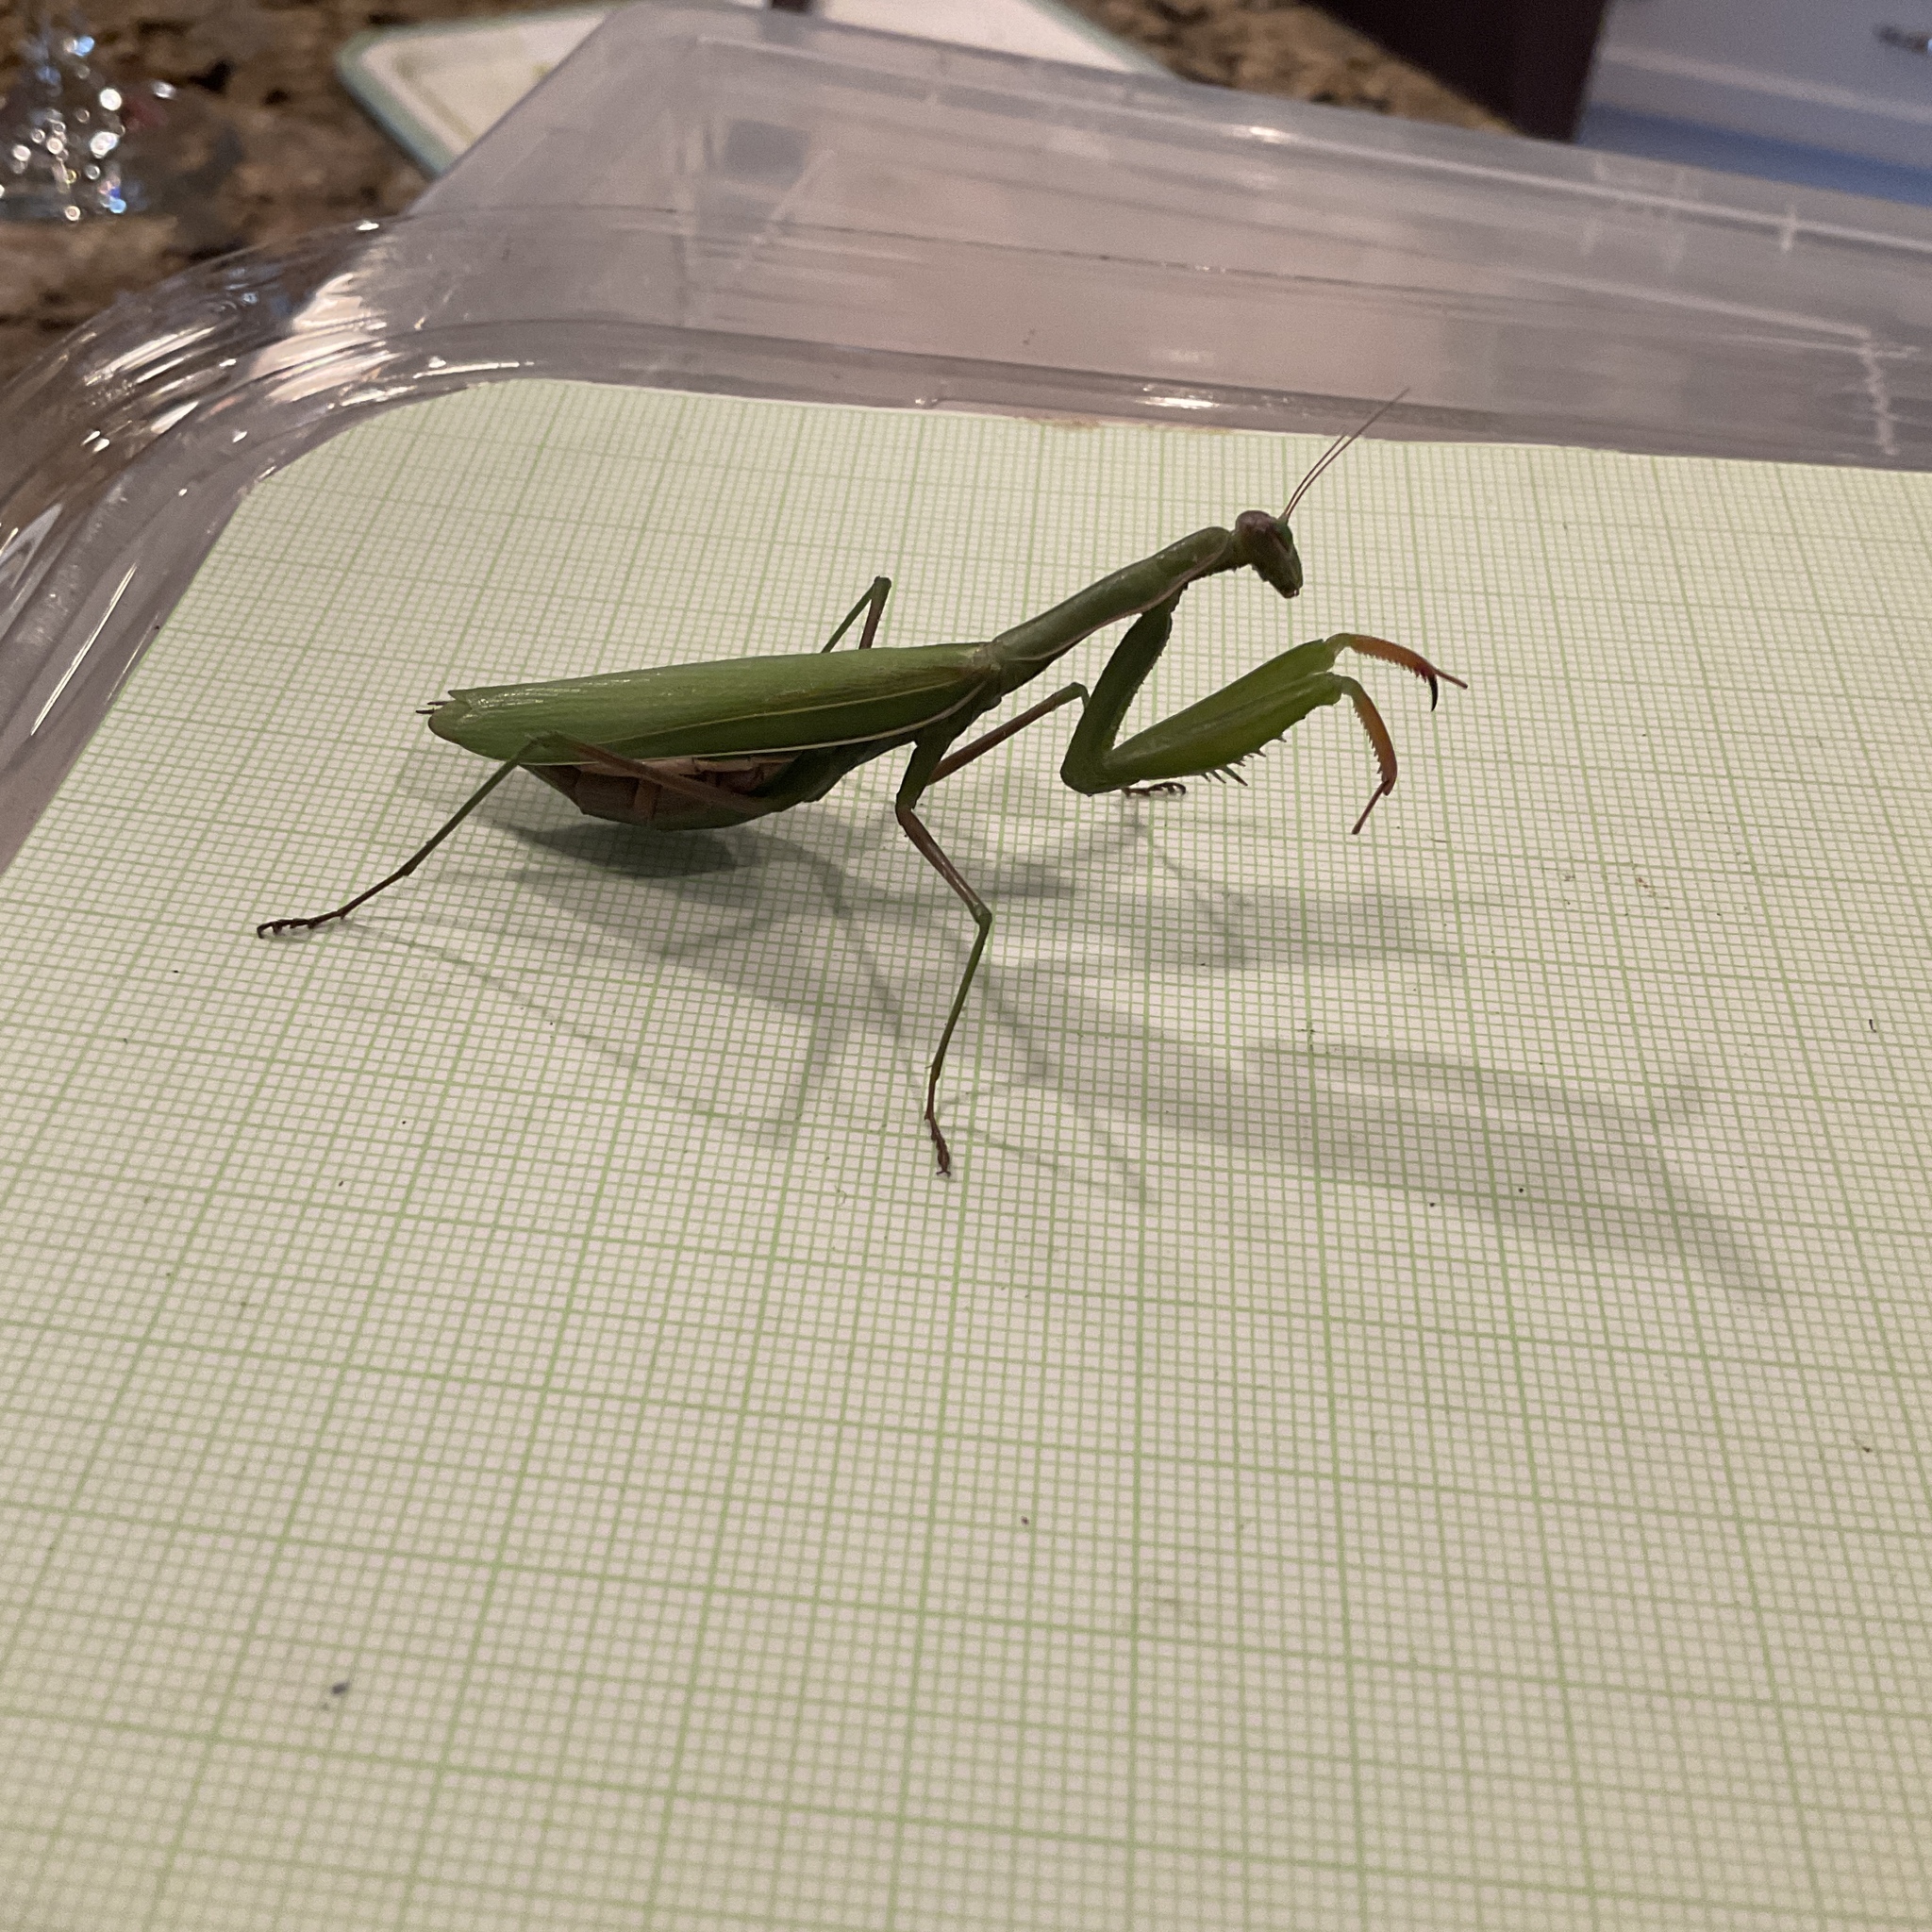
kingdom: Animalia
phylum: Arthropoda
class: Insecta
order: Mantodea
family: Mantidae
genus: Mantis
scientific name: Mantis religiosa
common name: Praying mantis
